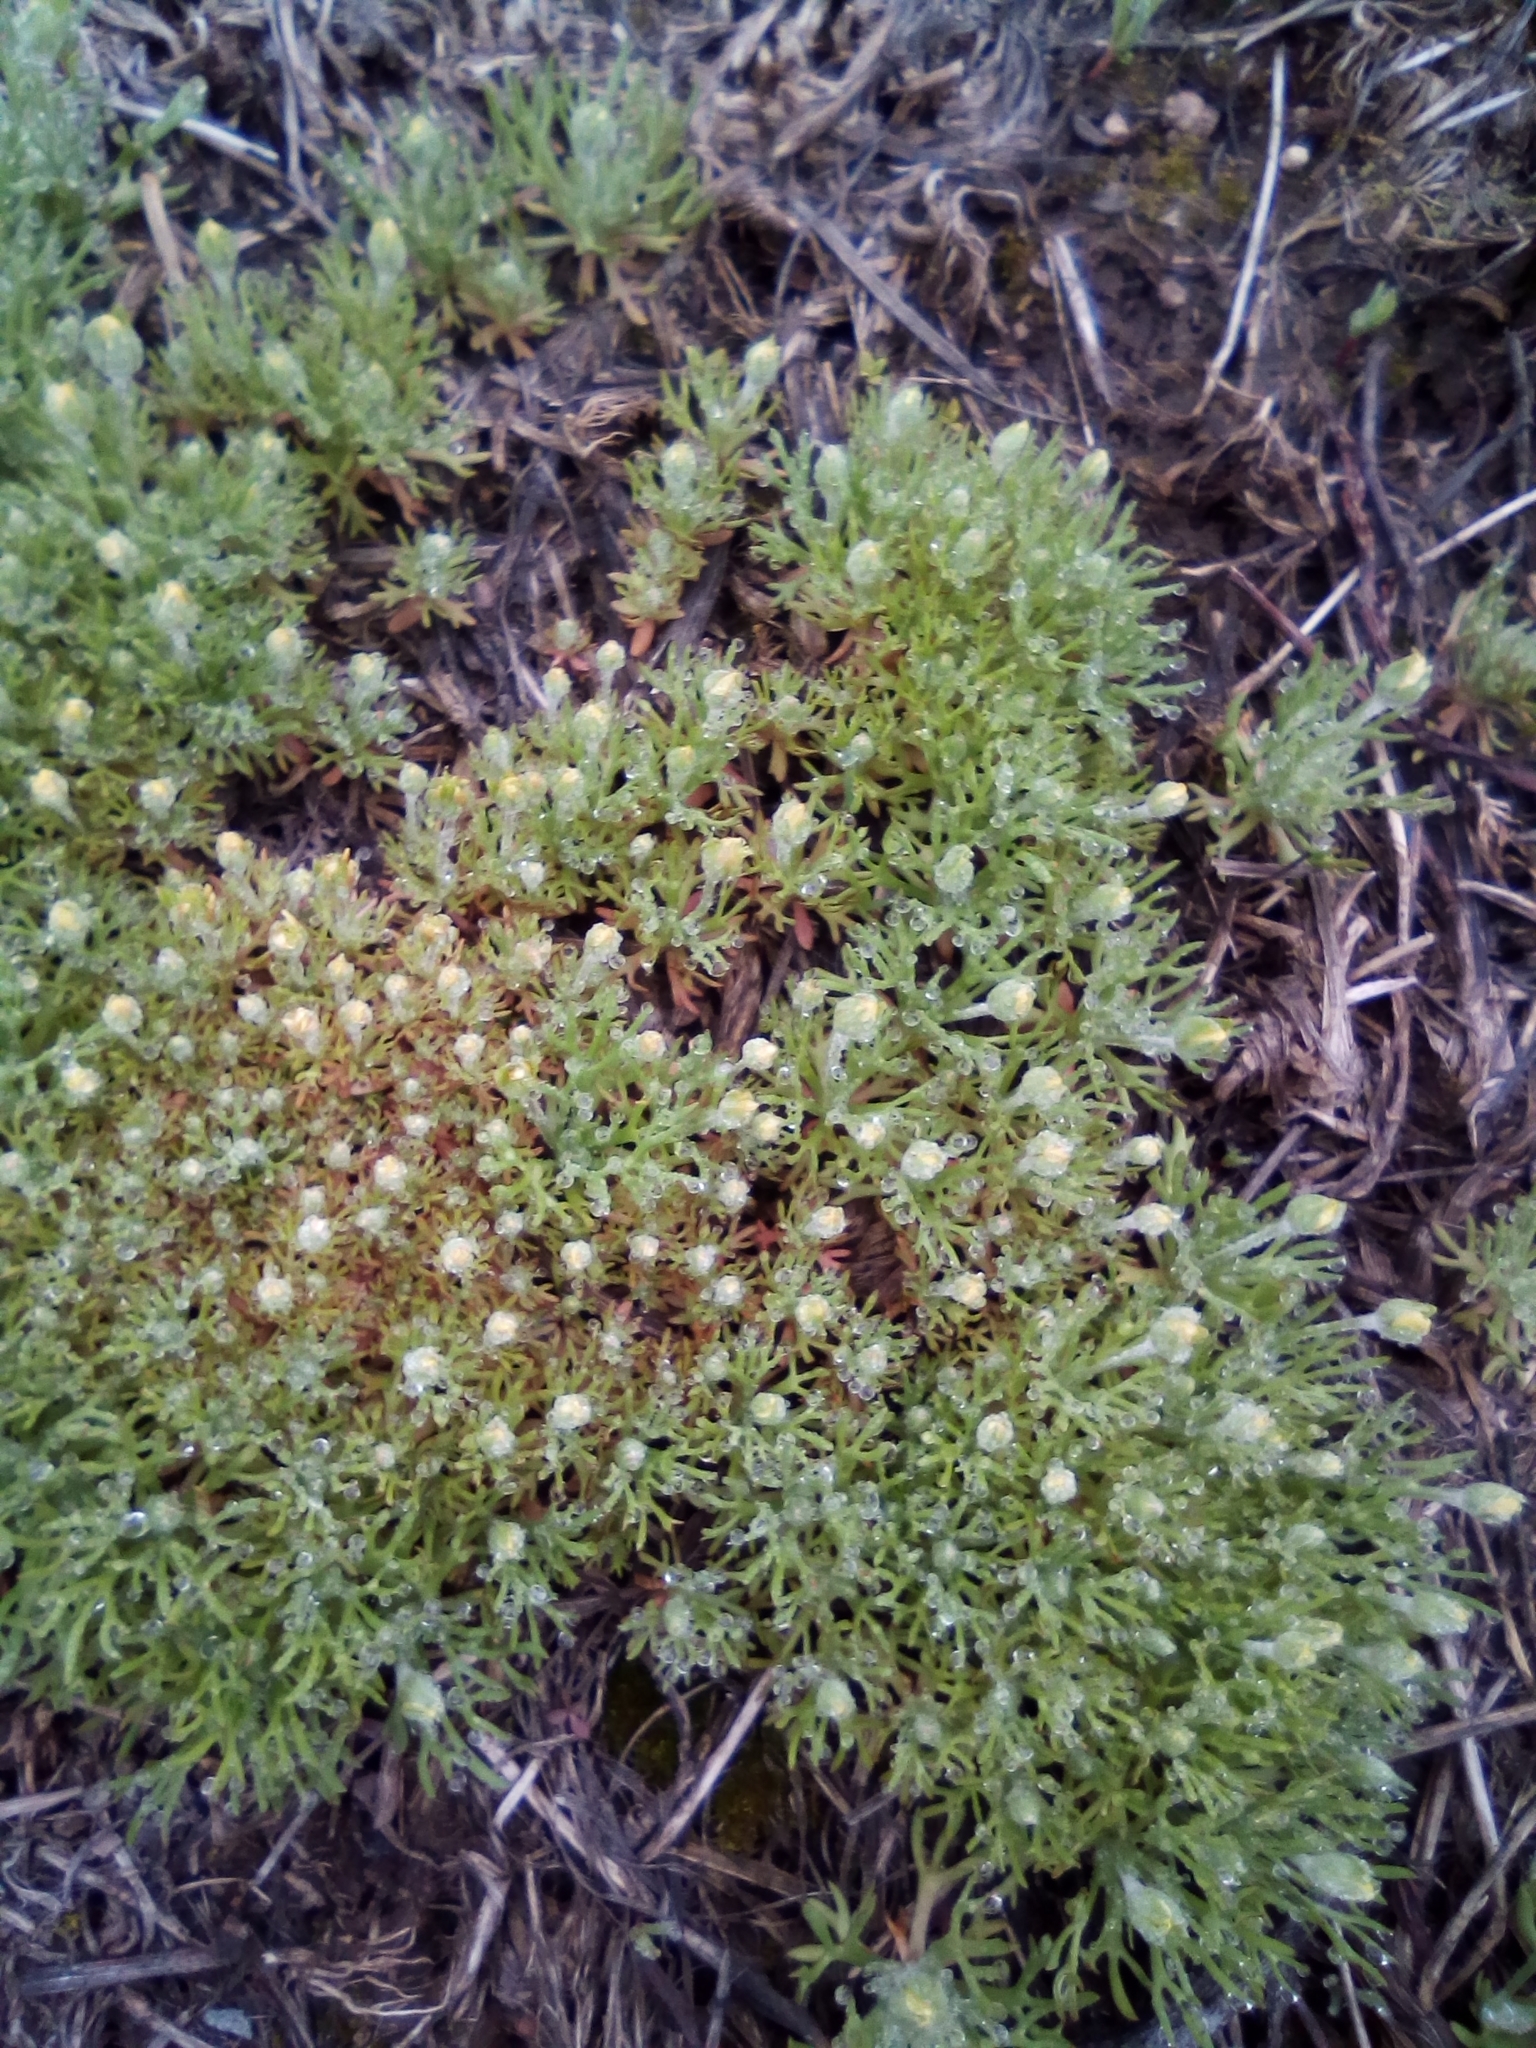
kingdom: Plantae
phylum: Tracheophyta
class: Magnoliopsida
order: Ranunculales
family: Ranunculaceae
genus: Ceratocephala
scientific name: Ceratocephala orthoceras
